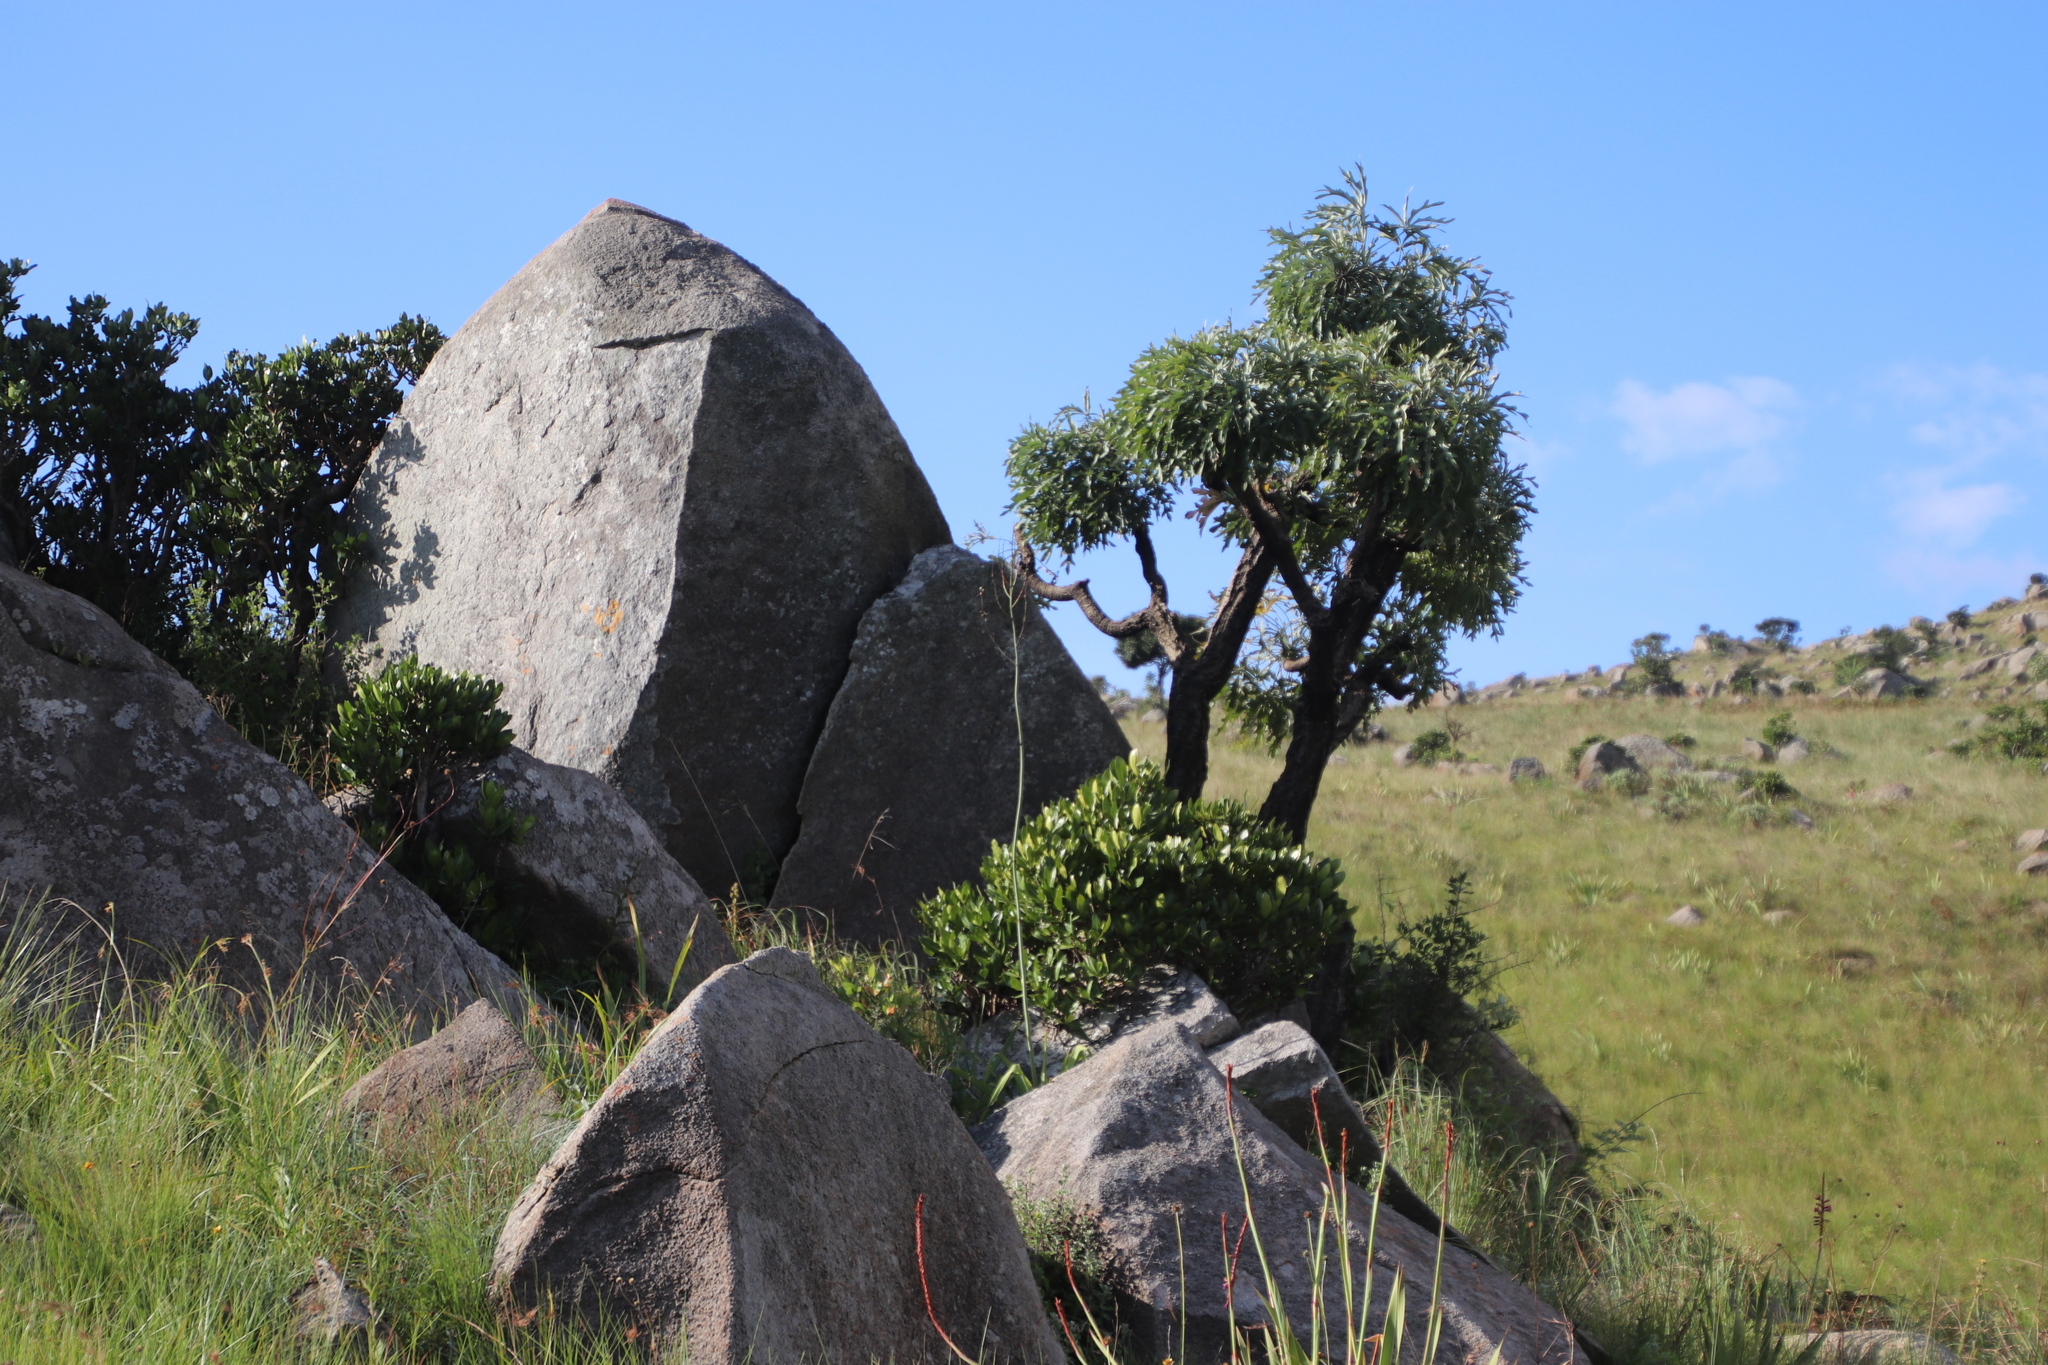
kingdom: Plantae
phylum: Tracheophyta
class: Magnoliopsida
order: Apiales
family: Araliaceae
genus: Cussonia
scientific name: Cussonia paniculata
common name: Cabbagetree
